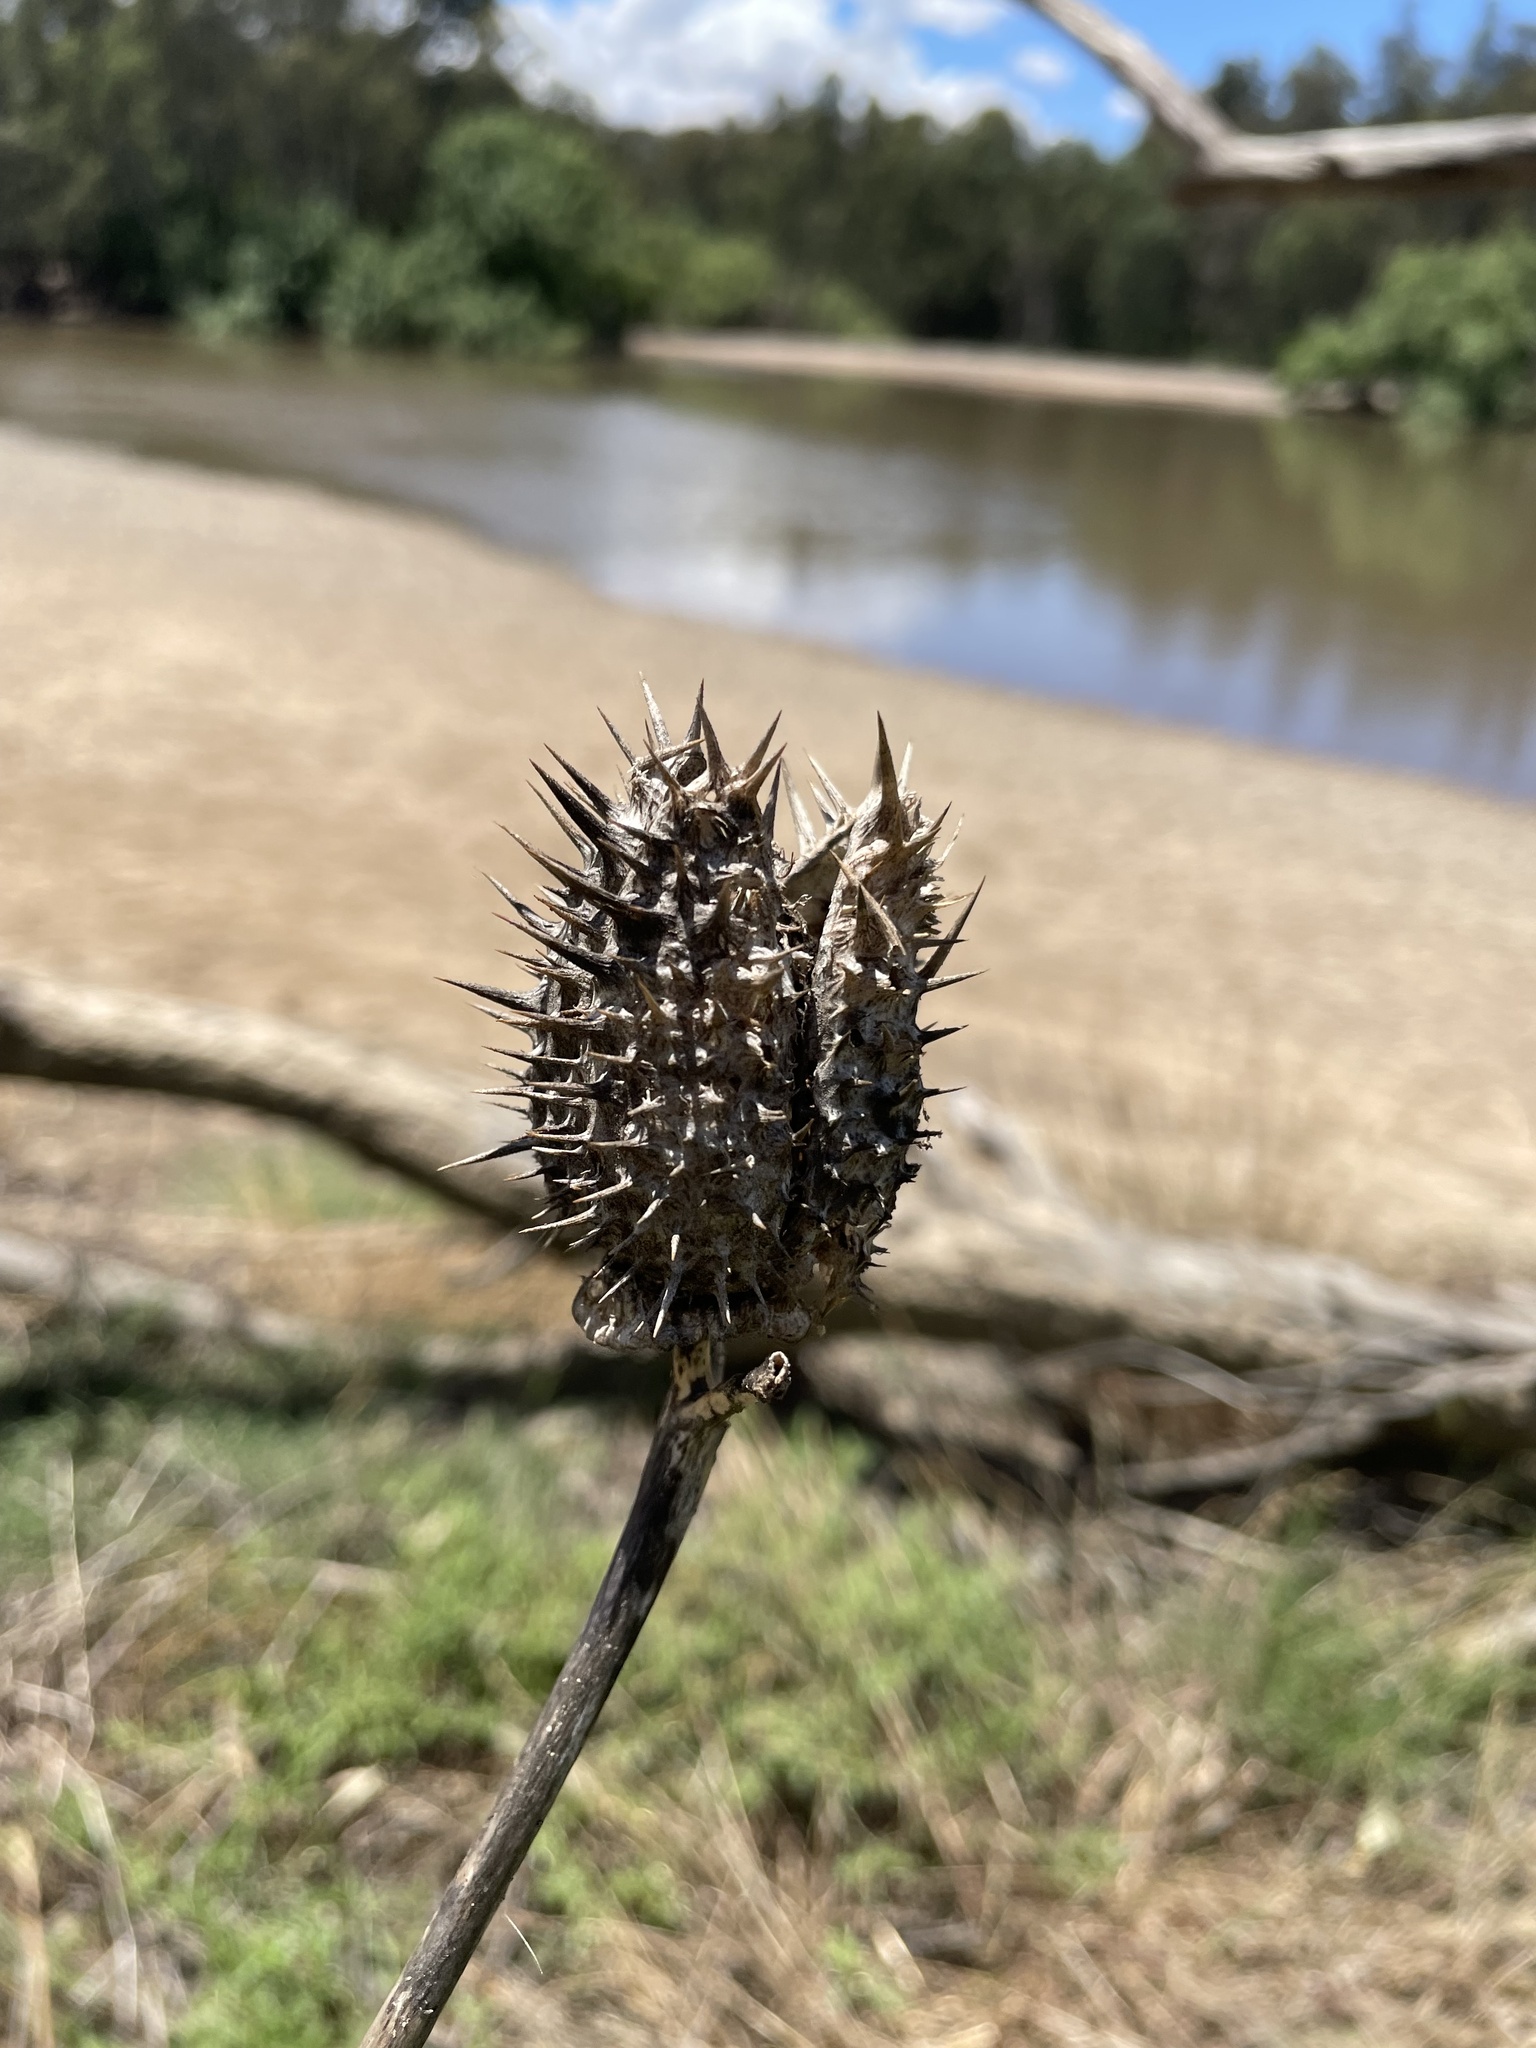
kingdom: Plantae
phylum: Tracheophyta
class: Magnoliopsida
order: Solanales
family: Solanaceae
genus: Datura
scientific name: Datura stramonium
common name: Thorn-apple
